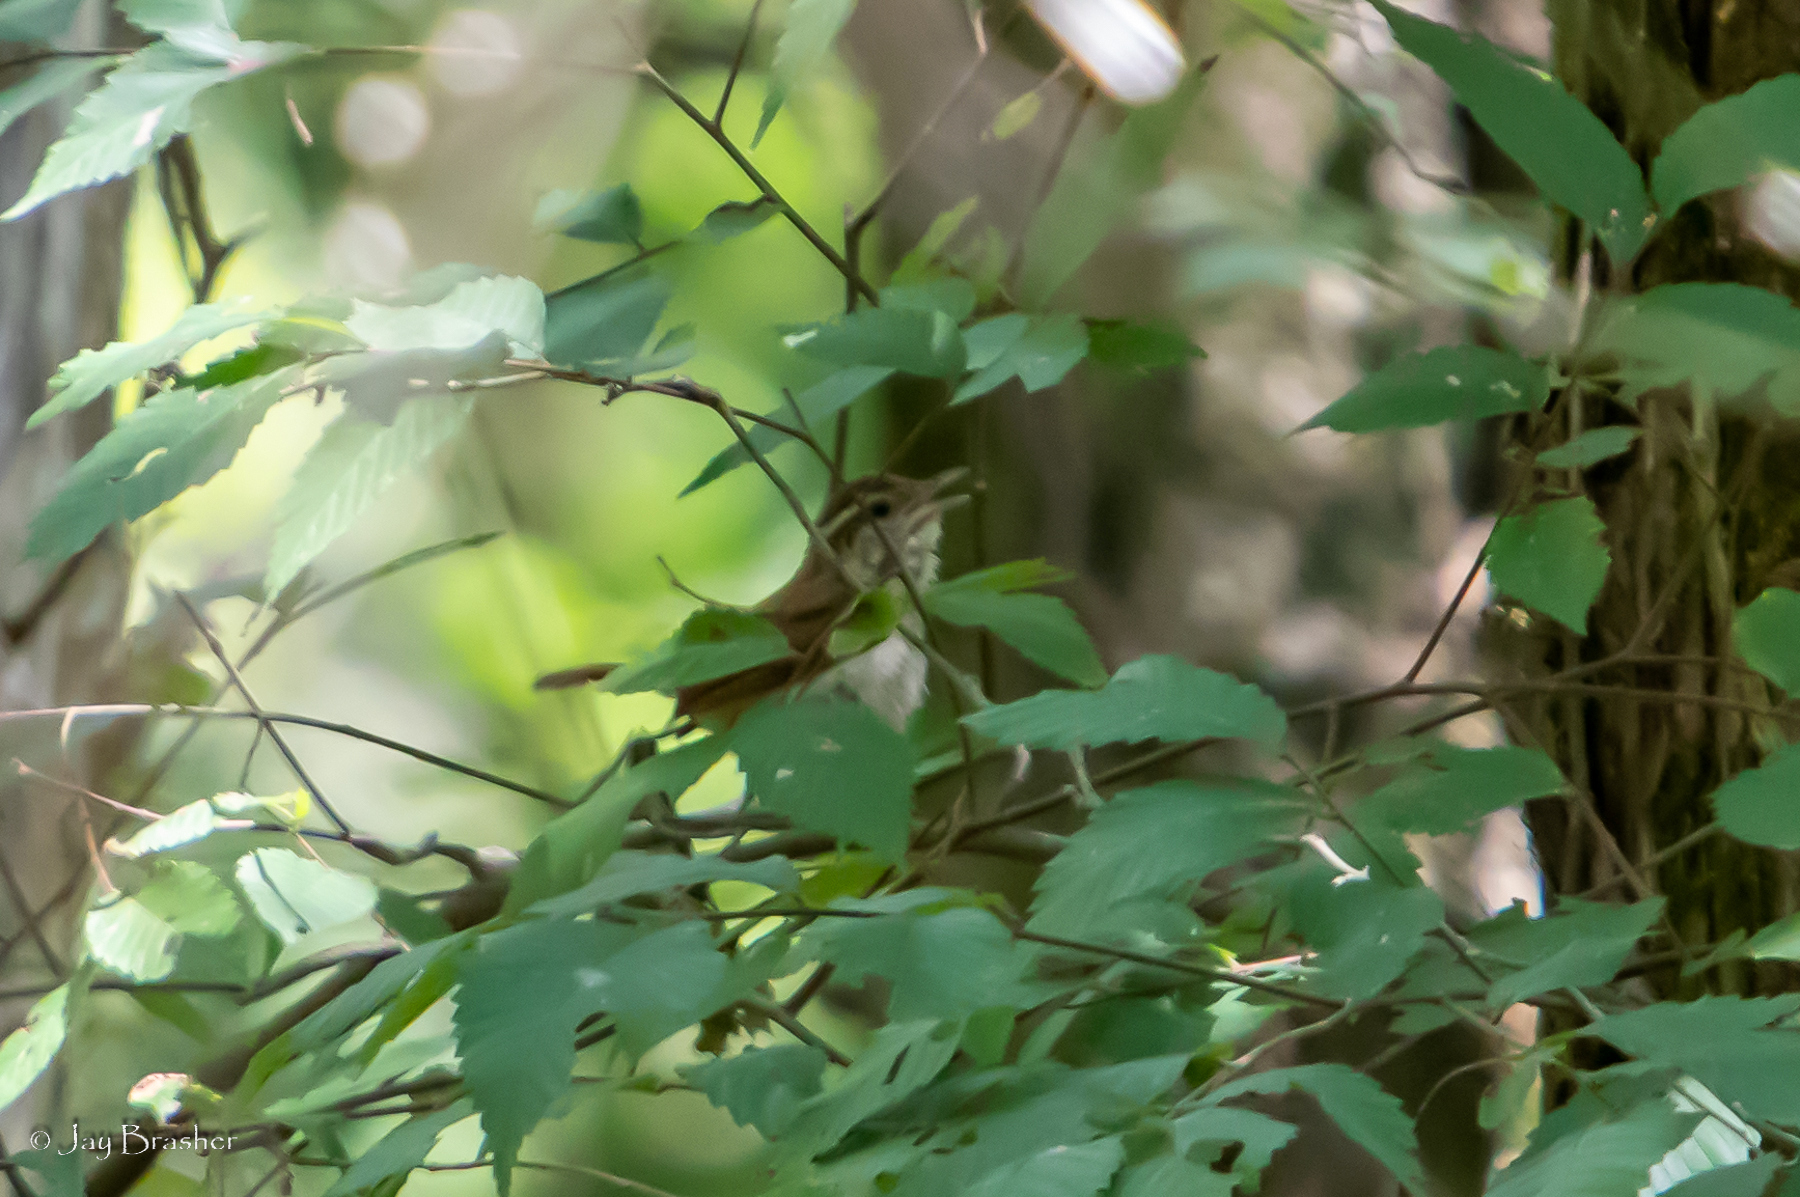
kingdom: Animalia
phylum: Chordata
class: Aves
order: Passeriformes
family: Troglodytidae
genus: Thryothorus
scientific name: Thryothorus ludovicianus
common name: Carolina wren
